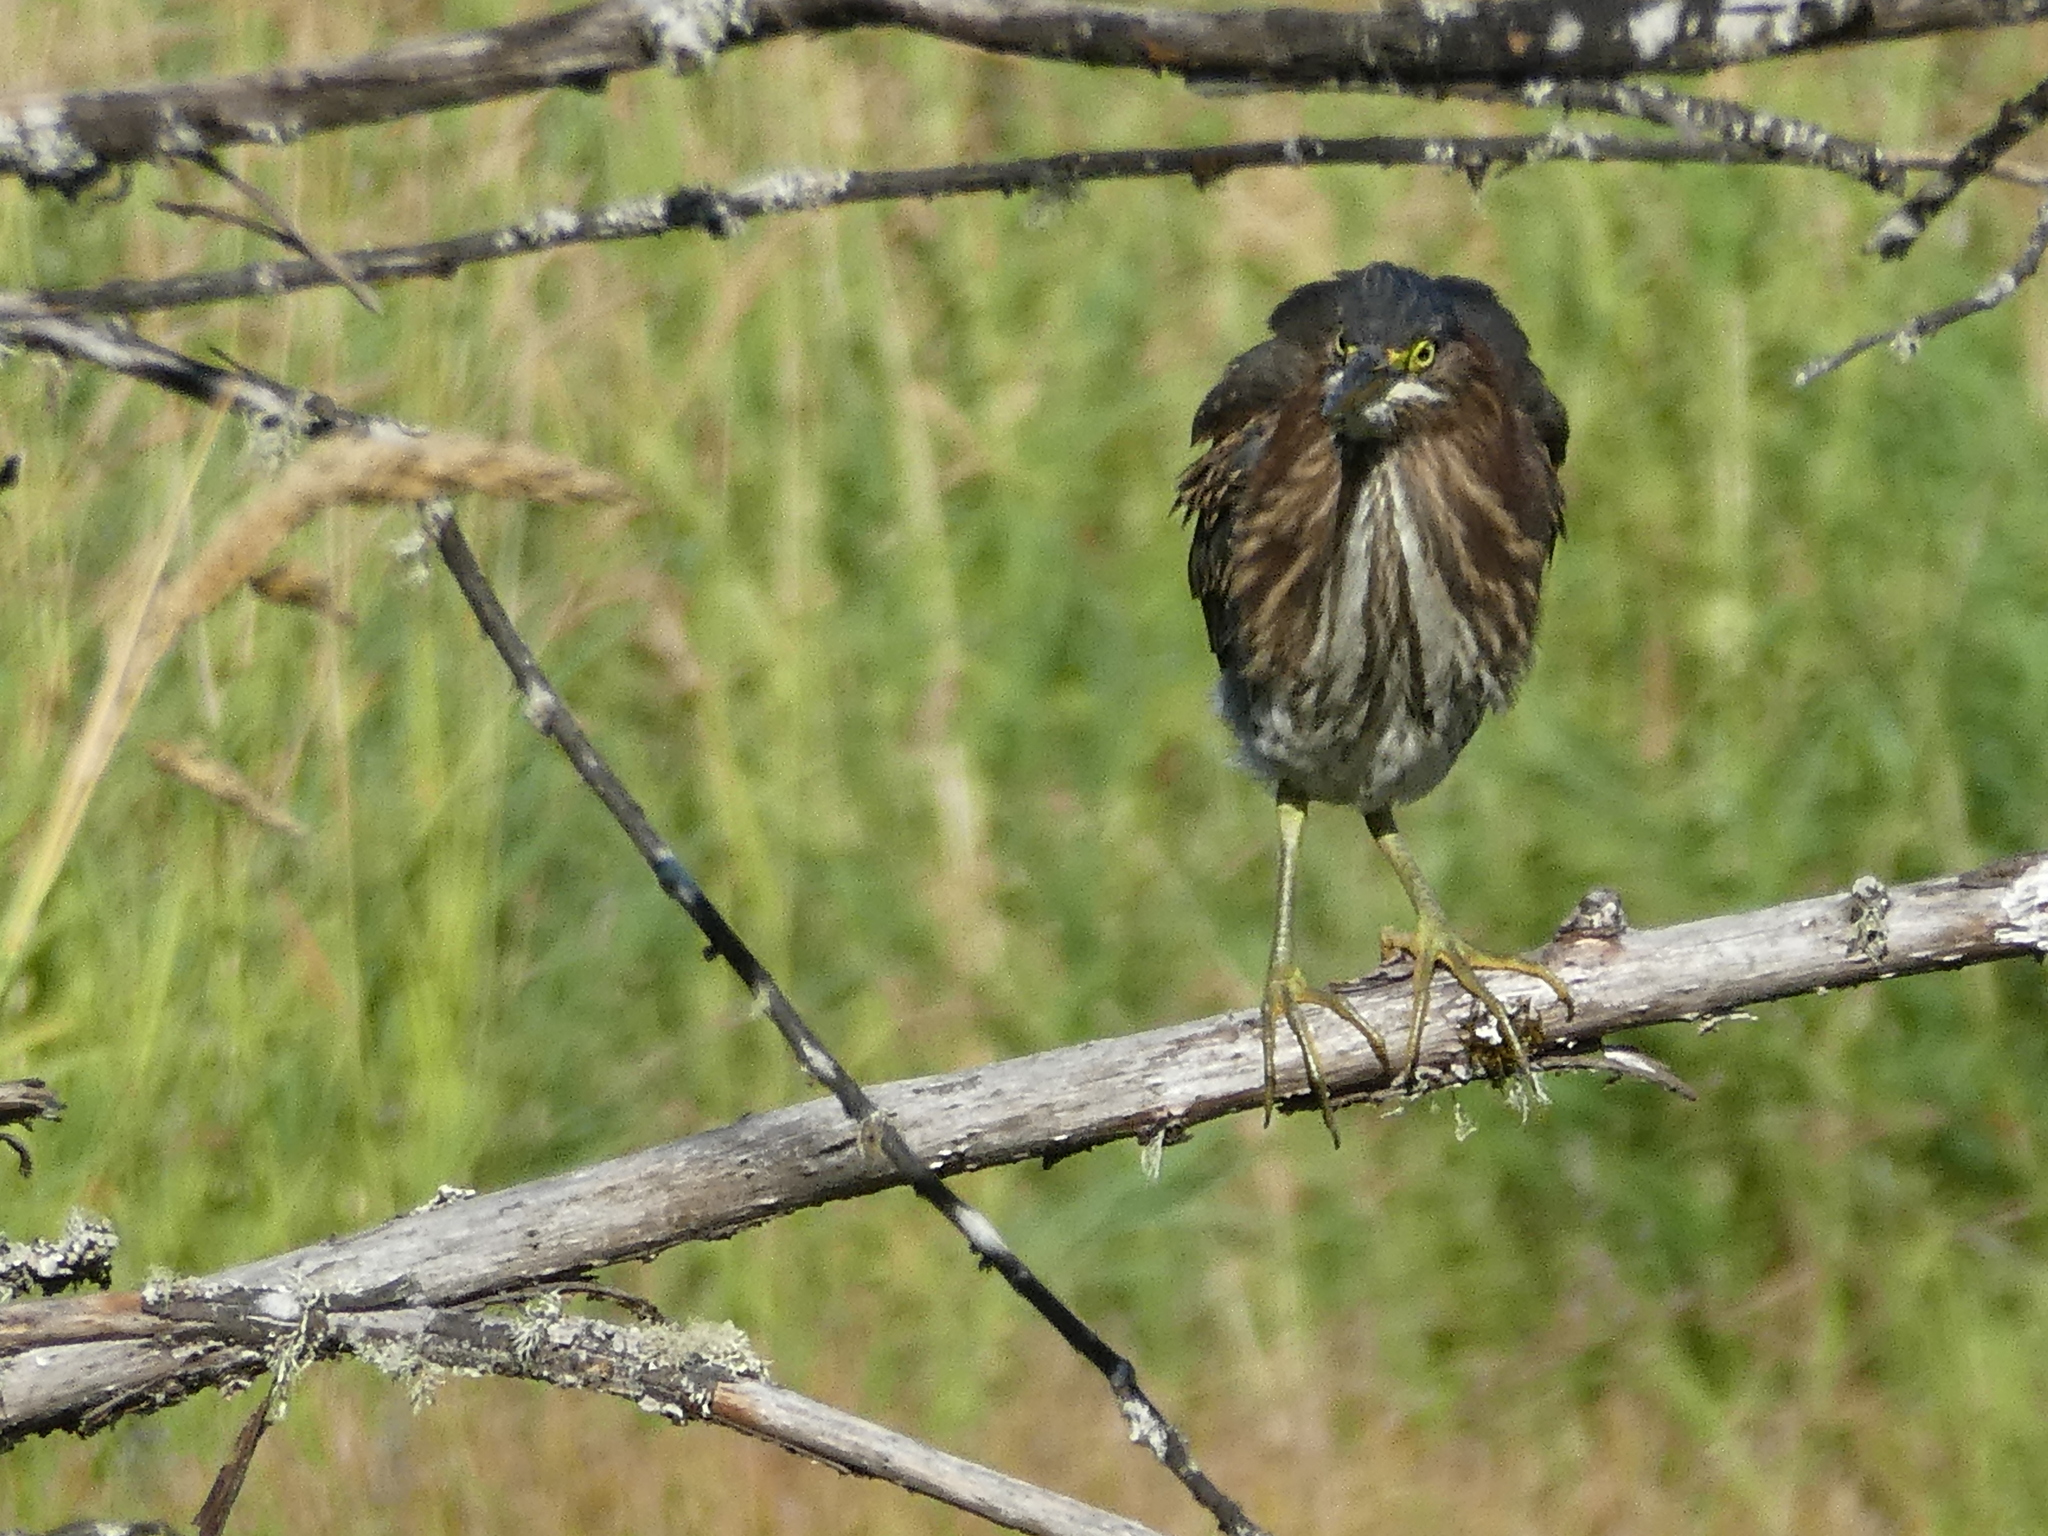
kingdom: Animalia
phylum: Chordata
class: Aves
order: Pelecaniformes
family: Ardeidae
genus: Butorides
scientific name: Butorides virescens
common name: Green heron
